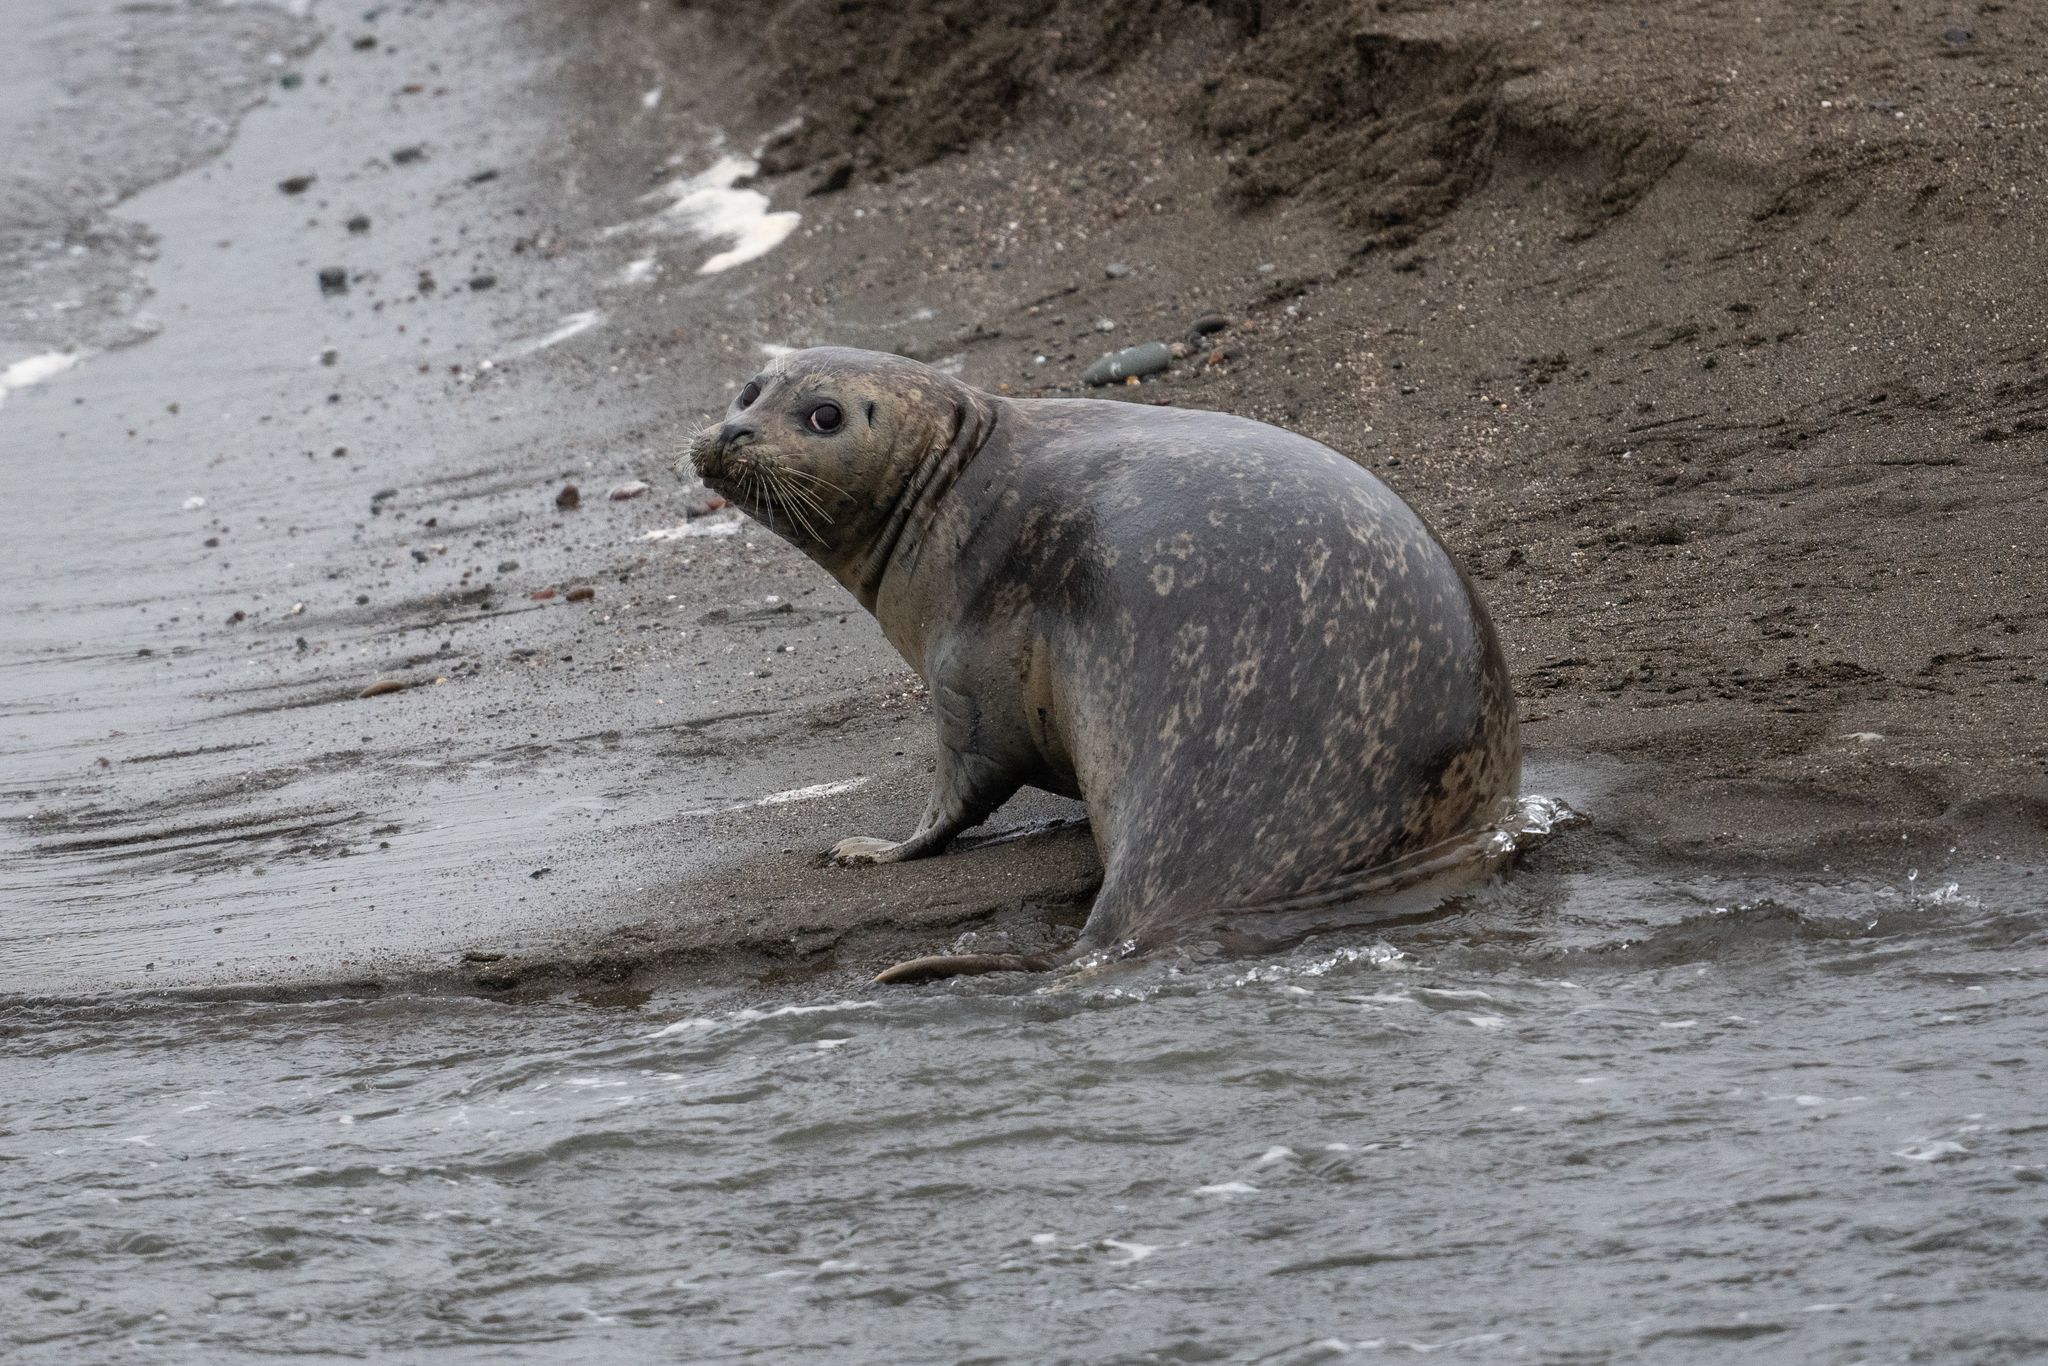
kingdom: Animalia
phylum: Chordata
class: Mammalia
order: Carnivora
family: Phocidae
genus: Phoca
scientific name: Phoca vitulina
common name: Harbor seal
